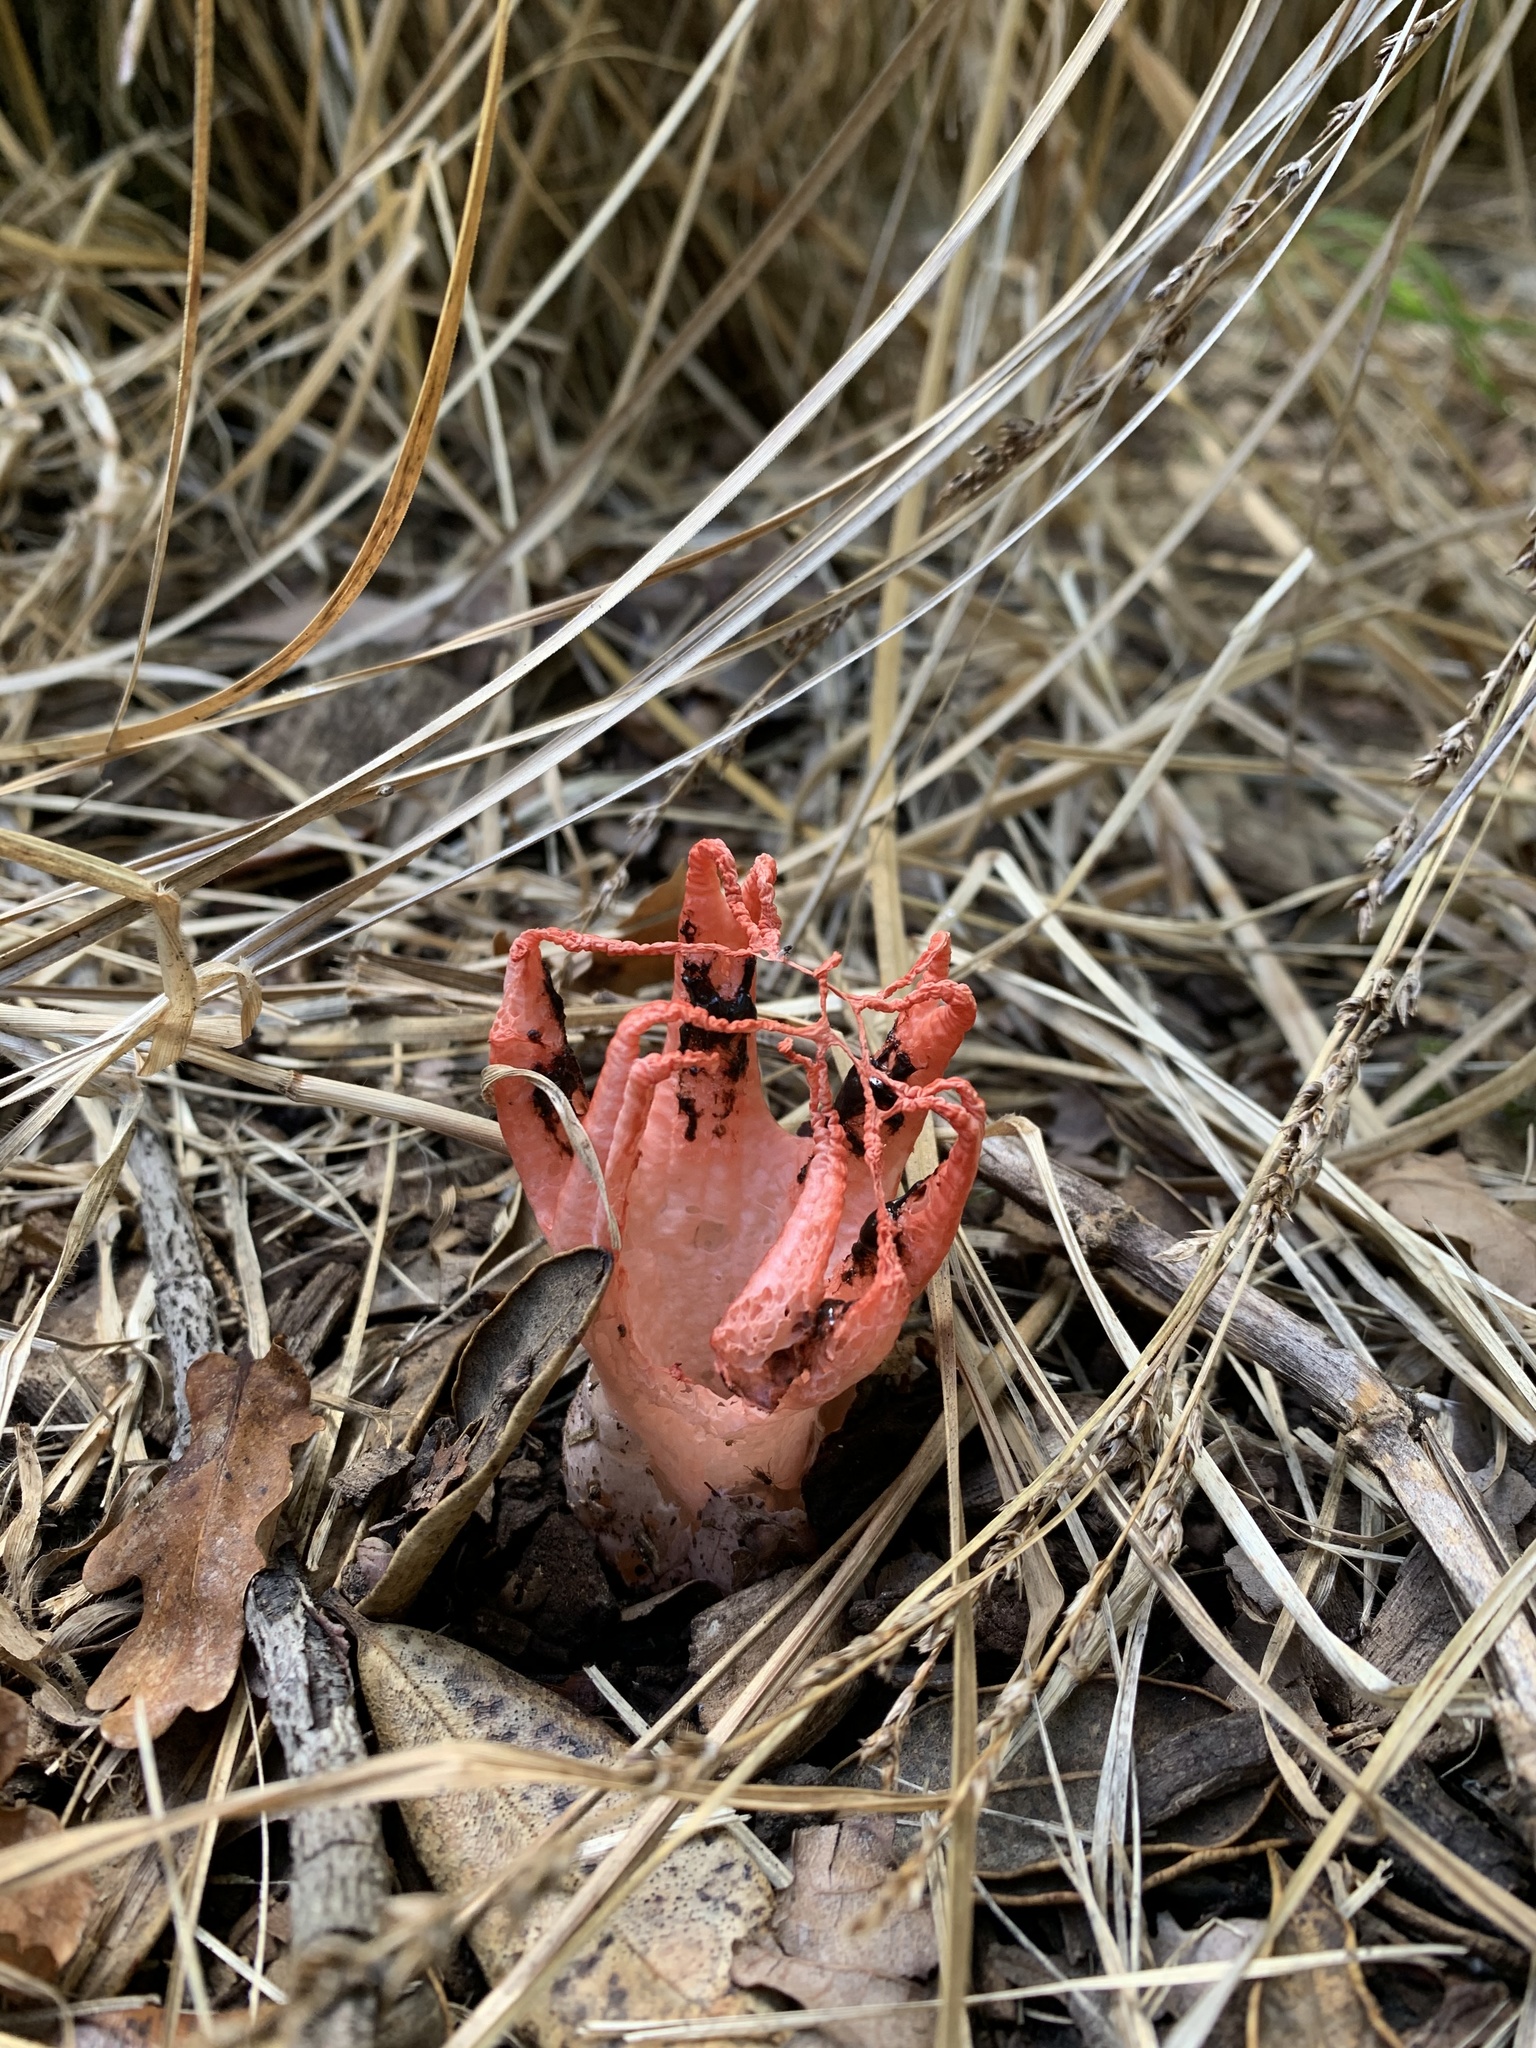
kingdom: Fungi
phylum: Basidiomycota
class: Agaricomycetes
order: Phallales
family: Phallaceae
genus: Clathrus
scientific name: Clathrus archeri
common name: Devil's fingers
